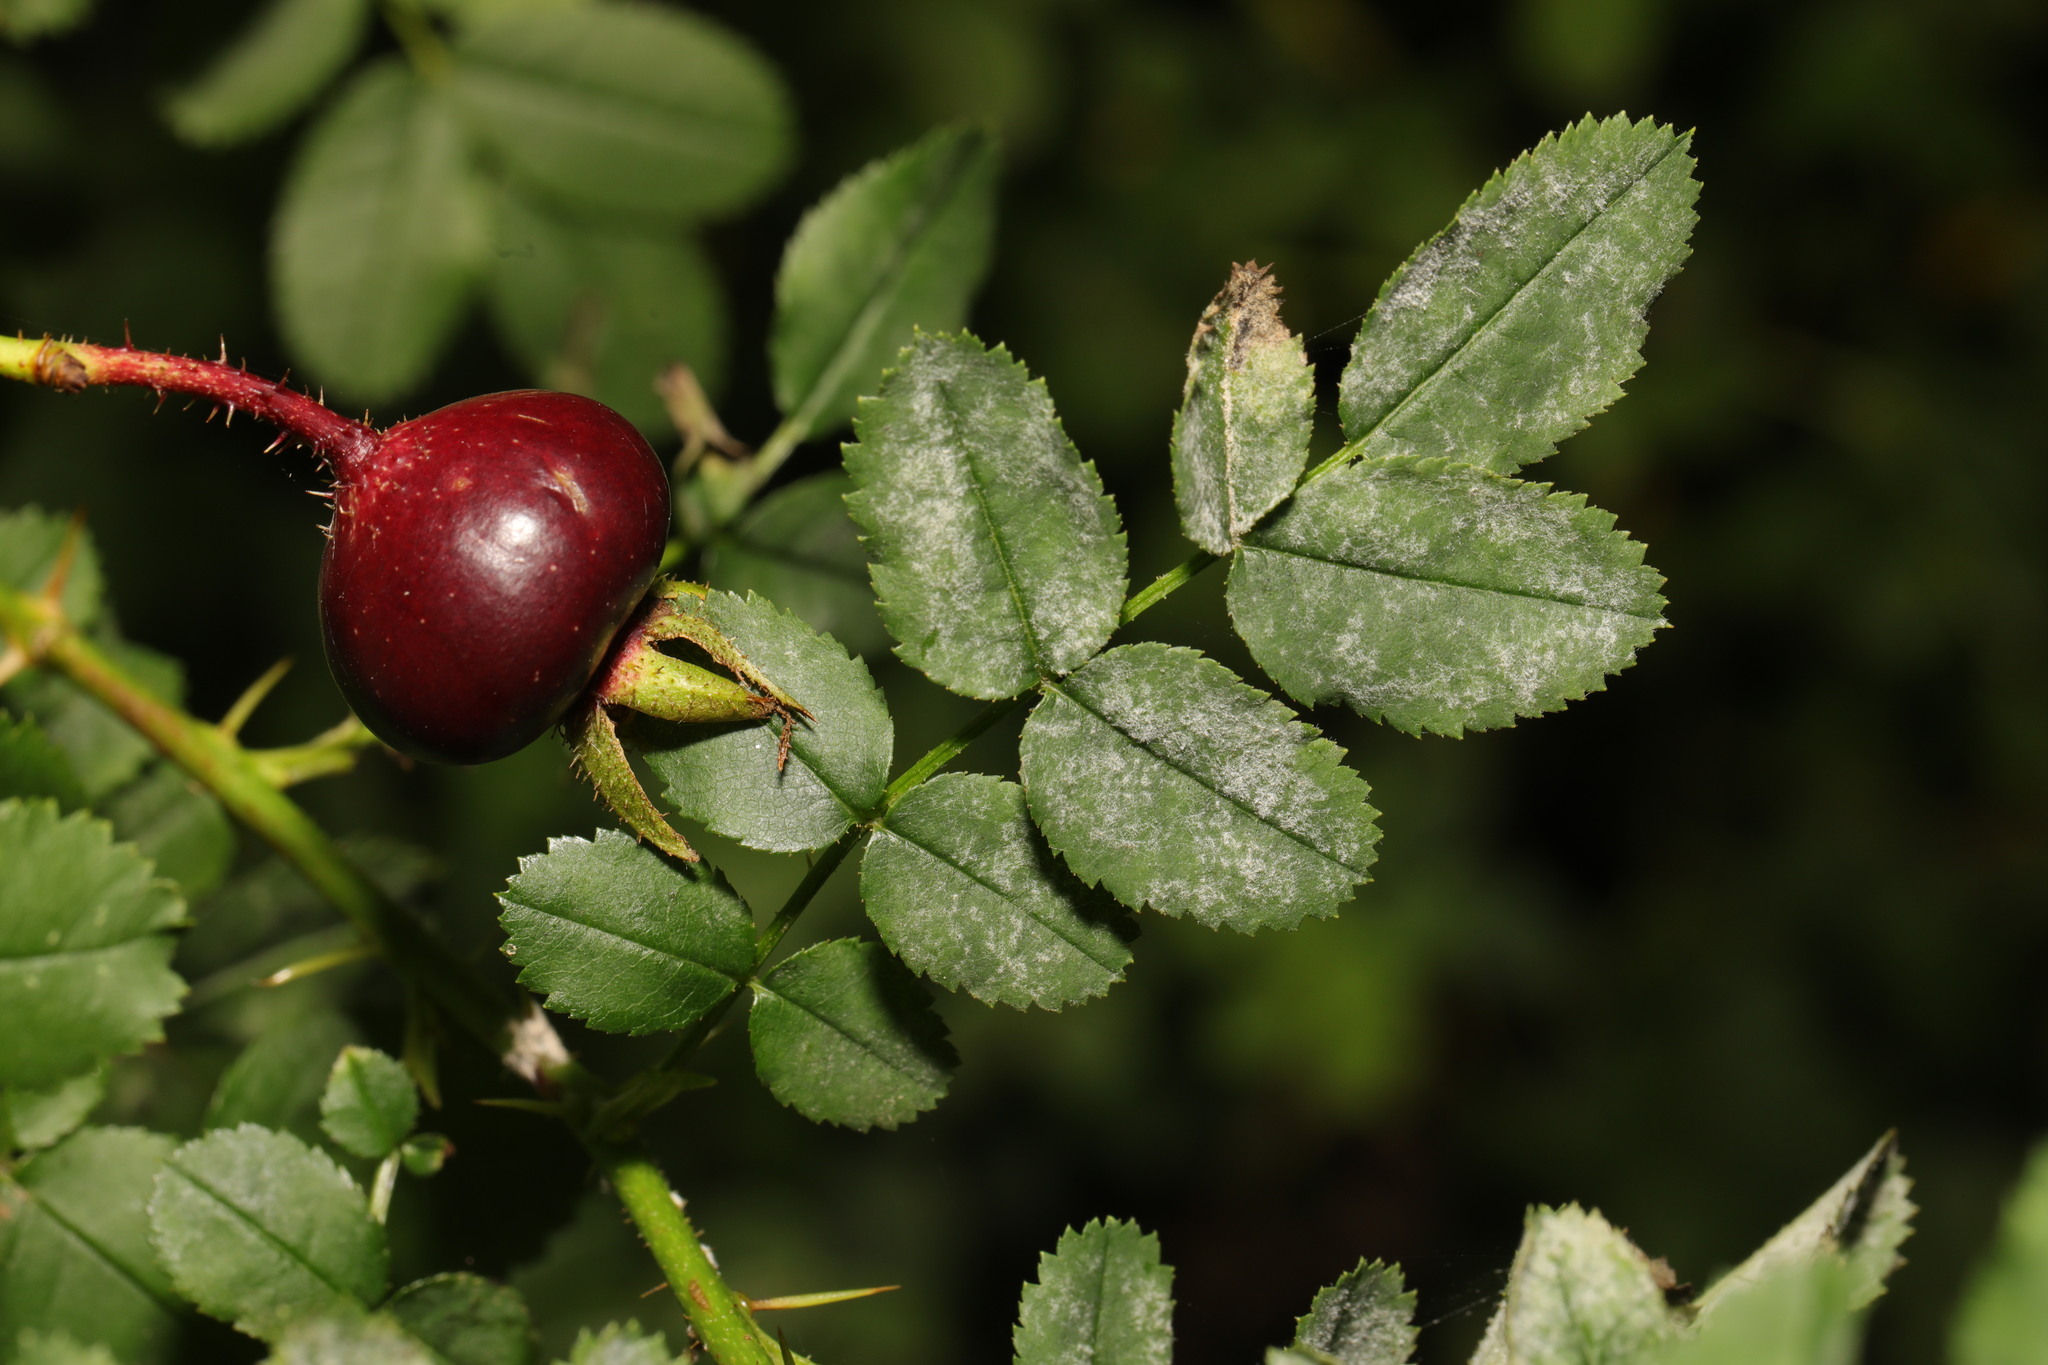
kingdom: Fungi
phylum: Ascomycota
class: Leotiomycetes
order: Helotiales
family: Erysiphaceae
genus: Podosphaera
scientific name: Podosphaera pannosa
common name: Rose mildew
